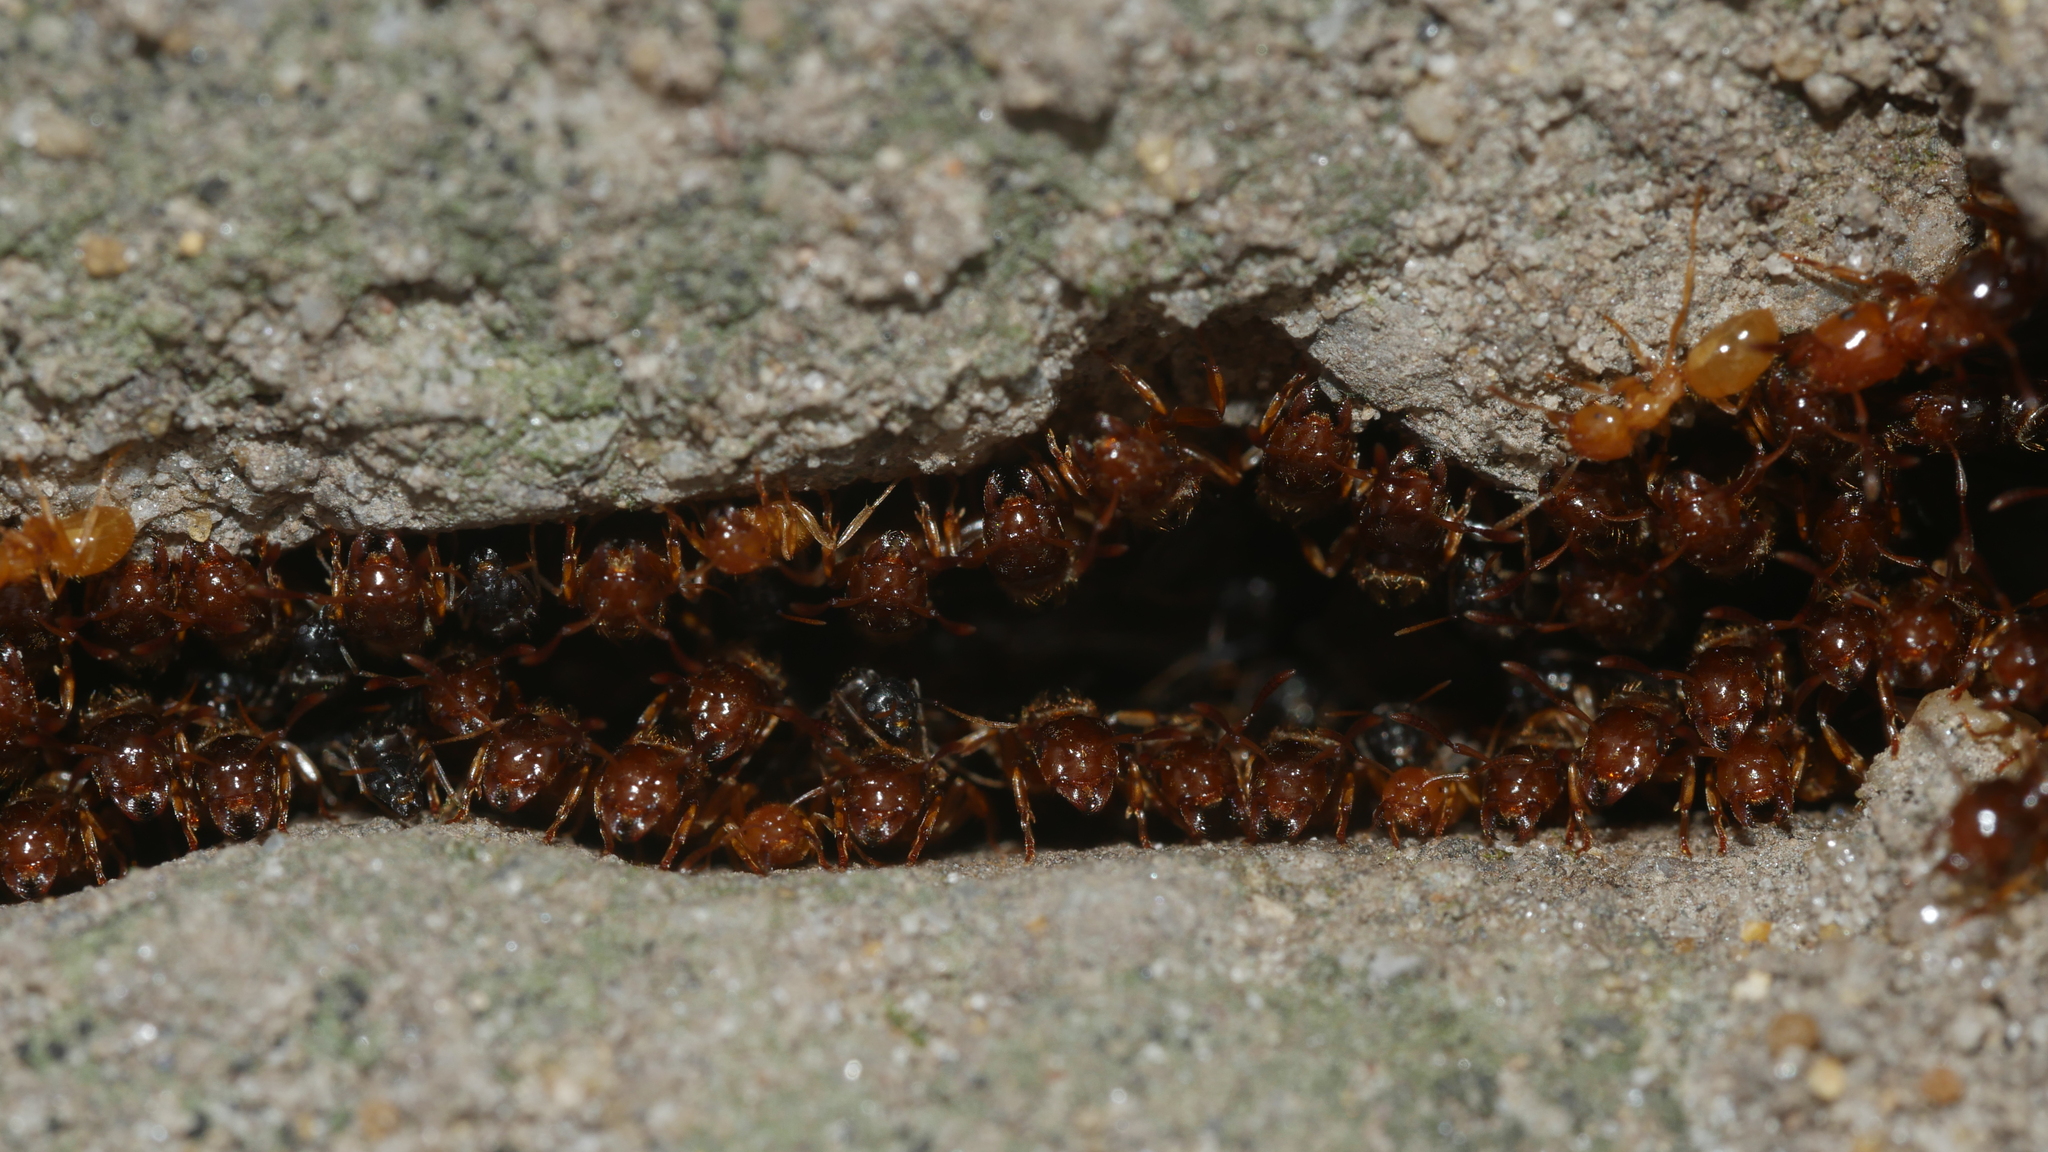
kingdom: Animalia
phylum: Arthropoda
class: Insecta
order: Hymenoptera
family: Formicidae
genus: Lasius
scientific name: Lasius claviger
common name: Common citronella ant
